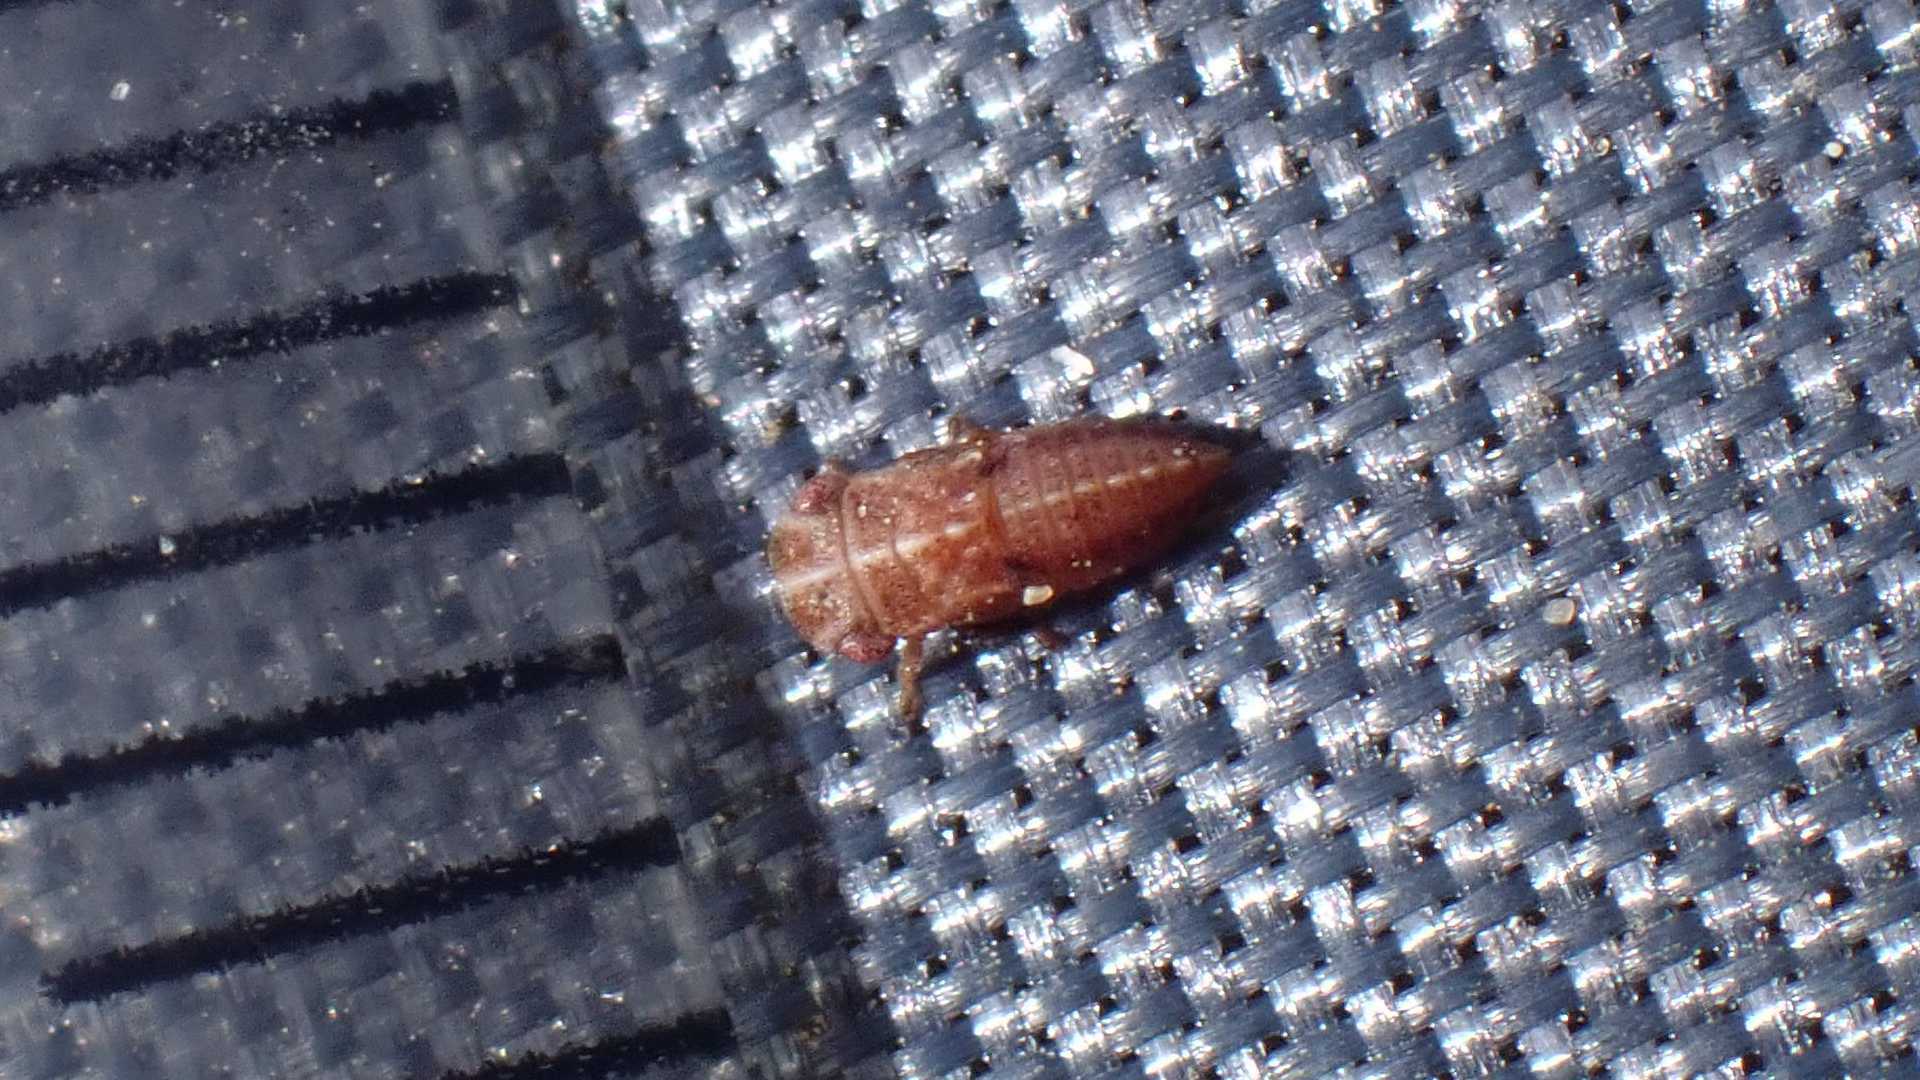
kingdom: Animalia
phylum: Arthropoda
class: Insecta
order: Hemiptera
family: Cicadellidae
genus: Ulopa
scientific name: Ulopa reticulata
